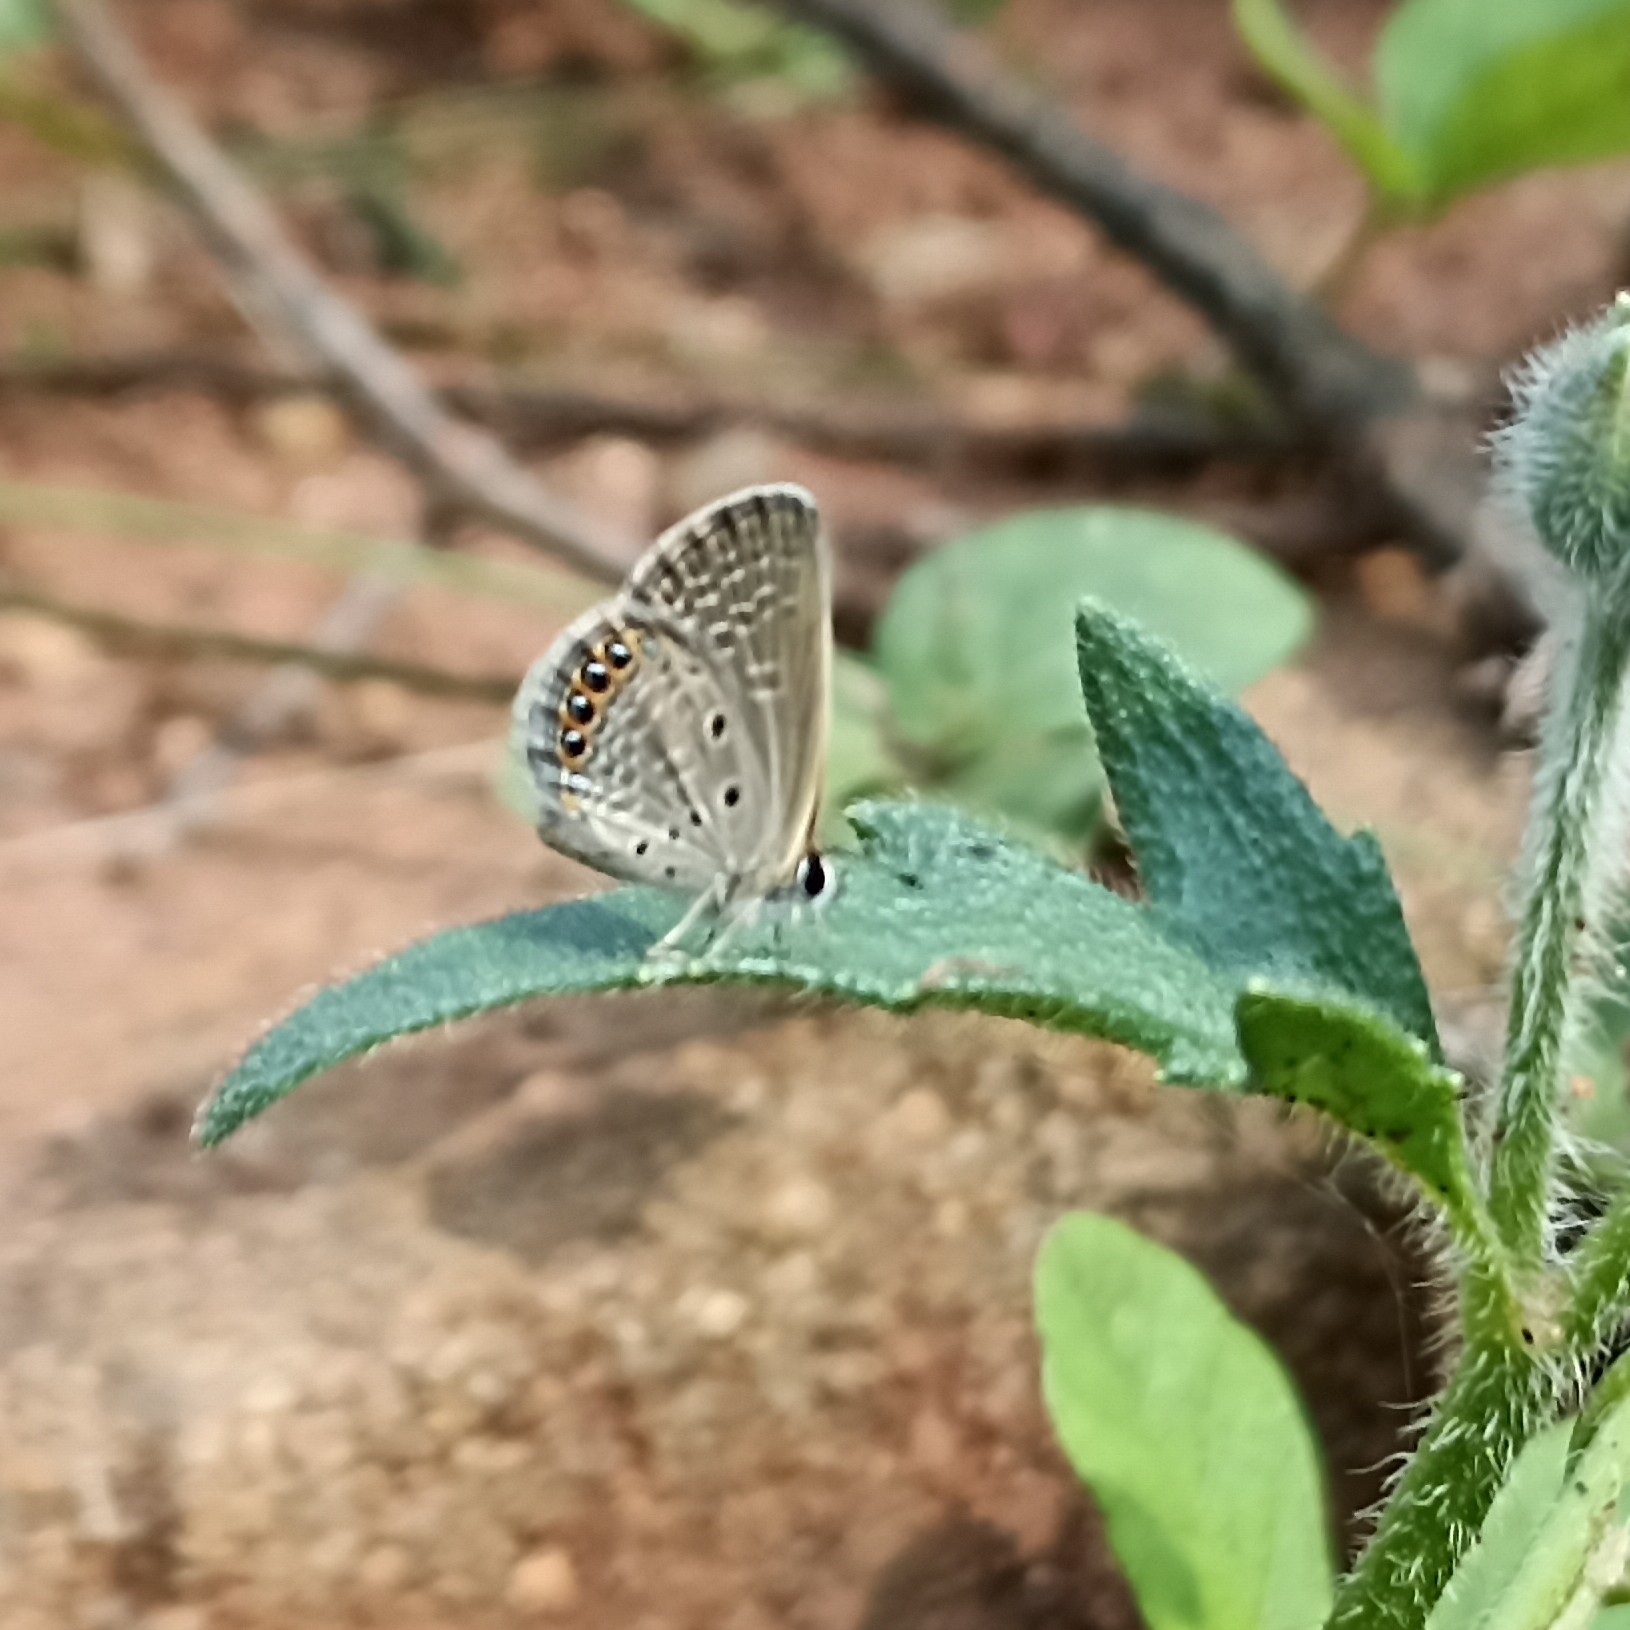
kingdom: Animalia
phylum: Arthropoda
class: Insecta
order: Lepidoptera
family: Lycaenidae
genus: Freyeria
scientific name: Freyeria putli
